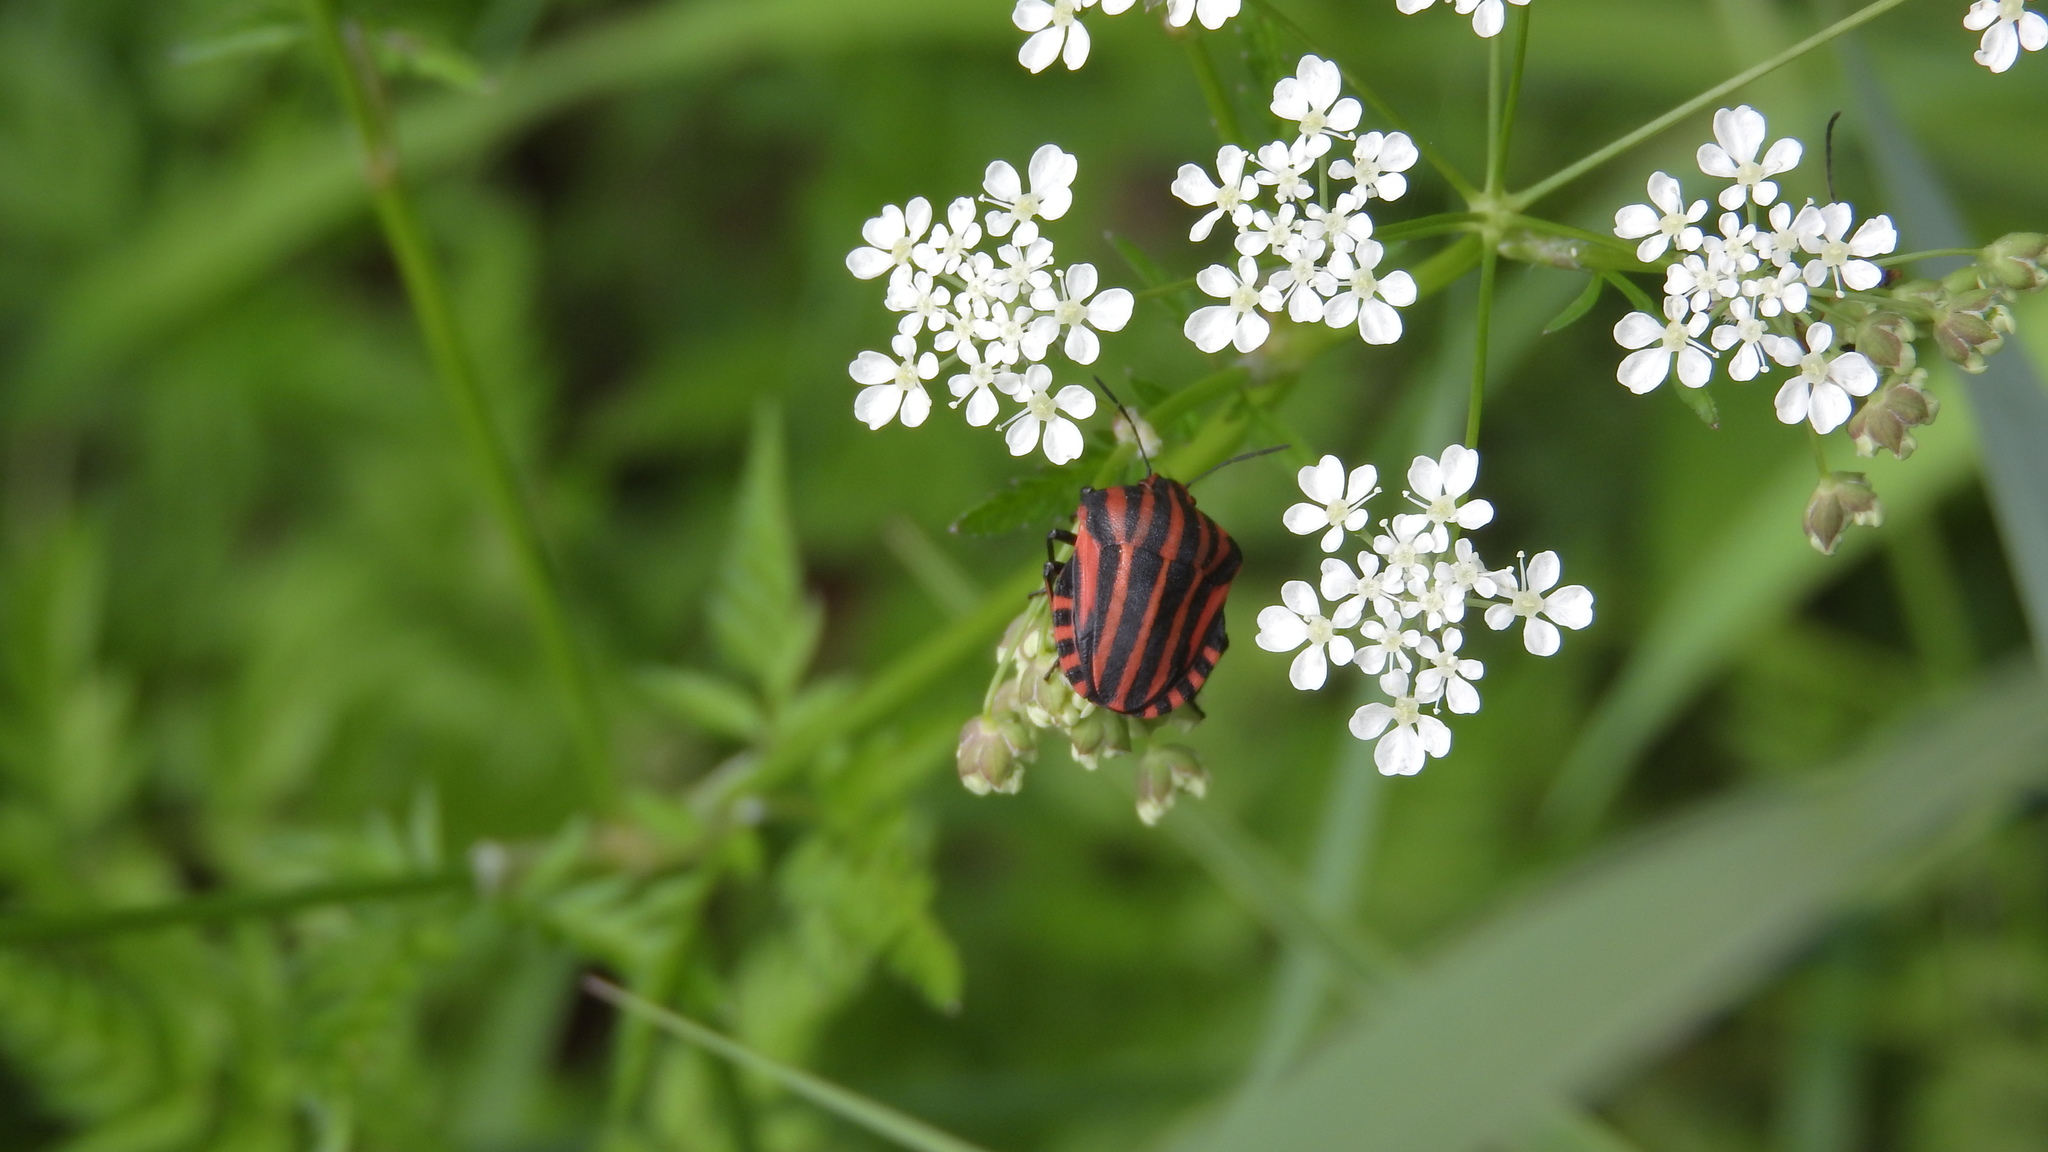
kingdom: Animalia
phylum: Arthropoda
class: Insecta
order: Hemiptera
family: Pentatomidae
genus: Graphosoma
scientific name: Graphosoma italicum
